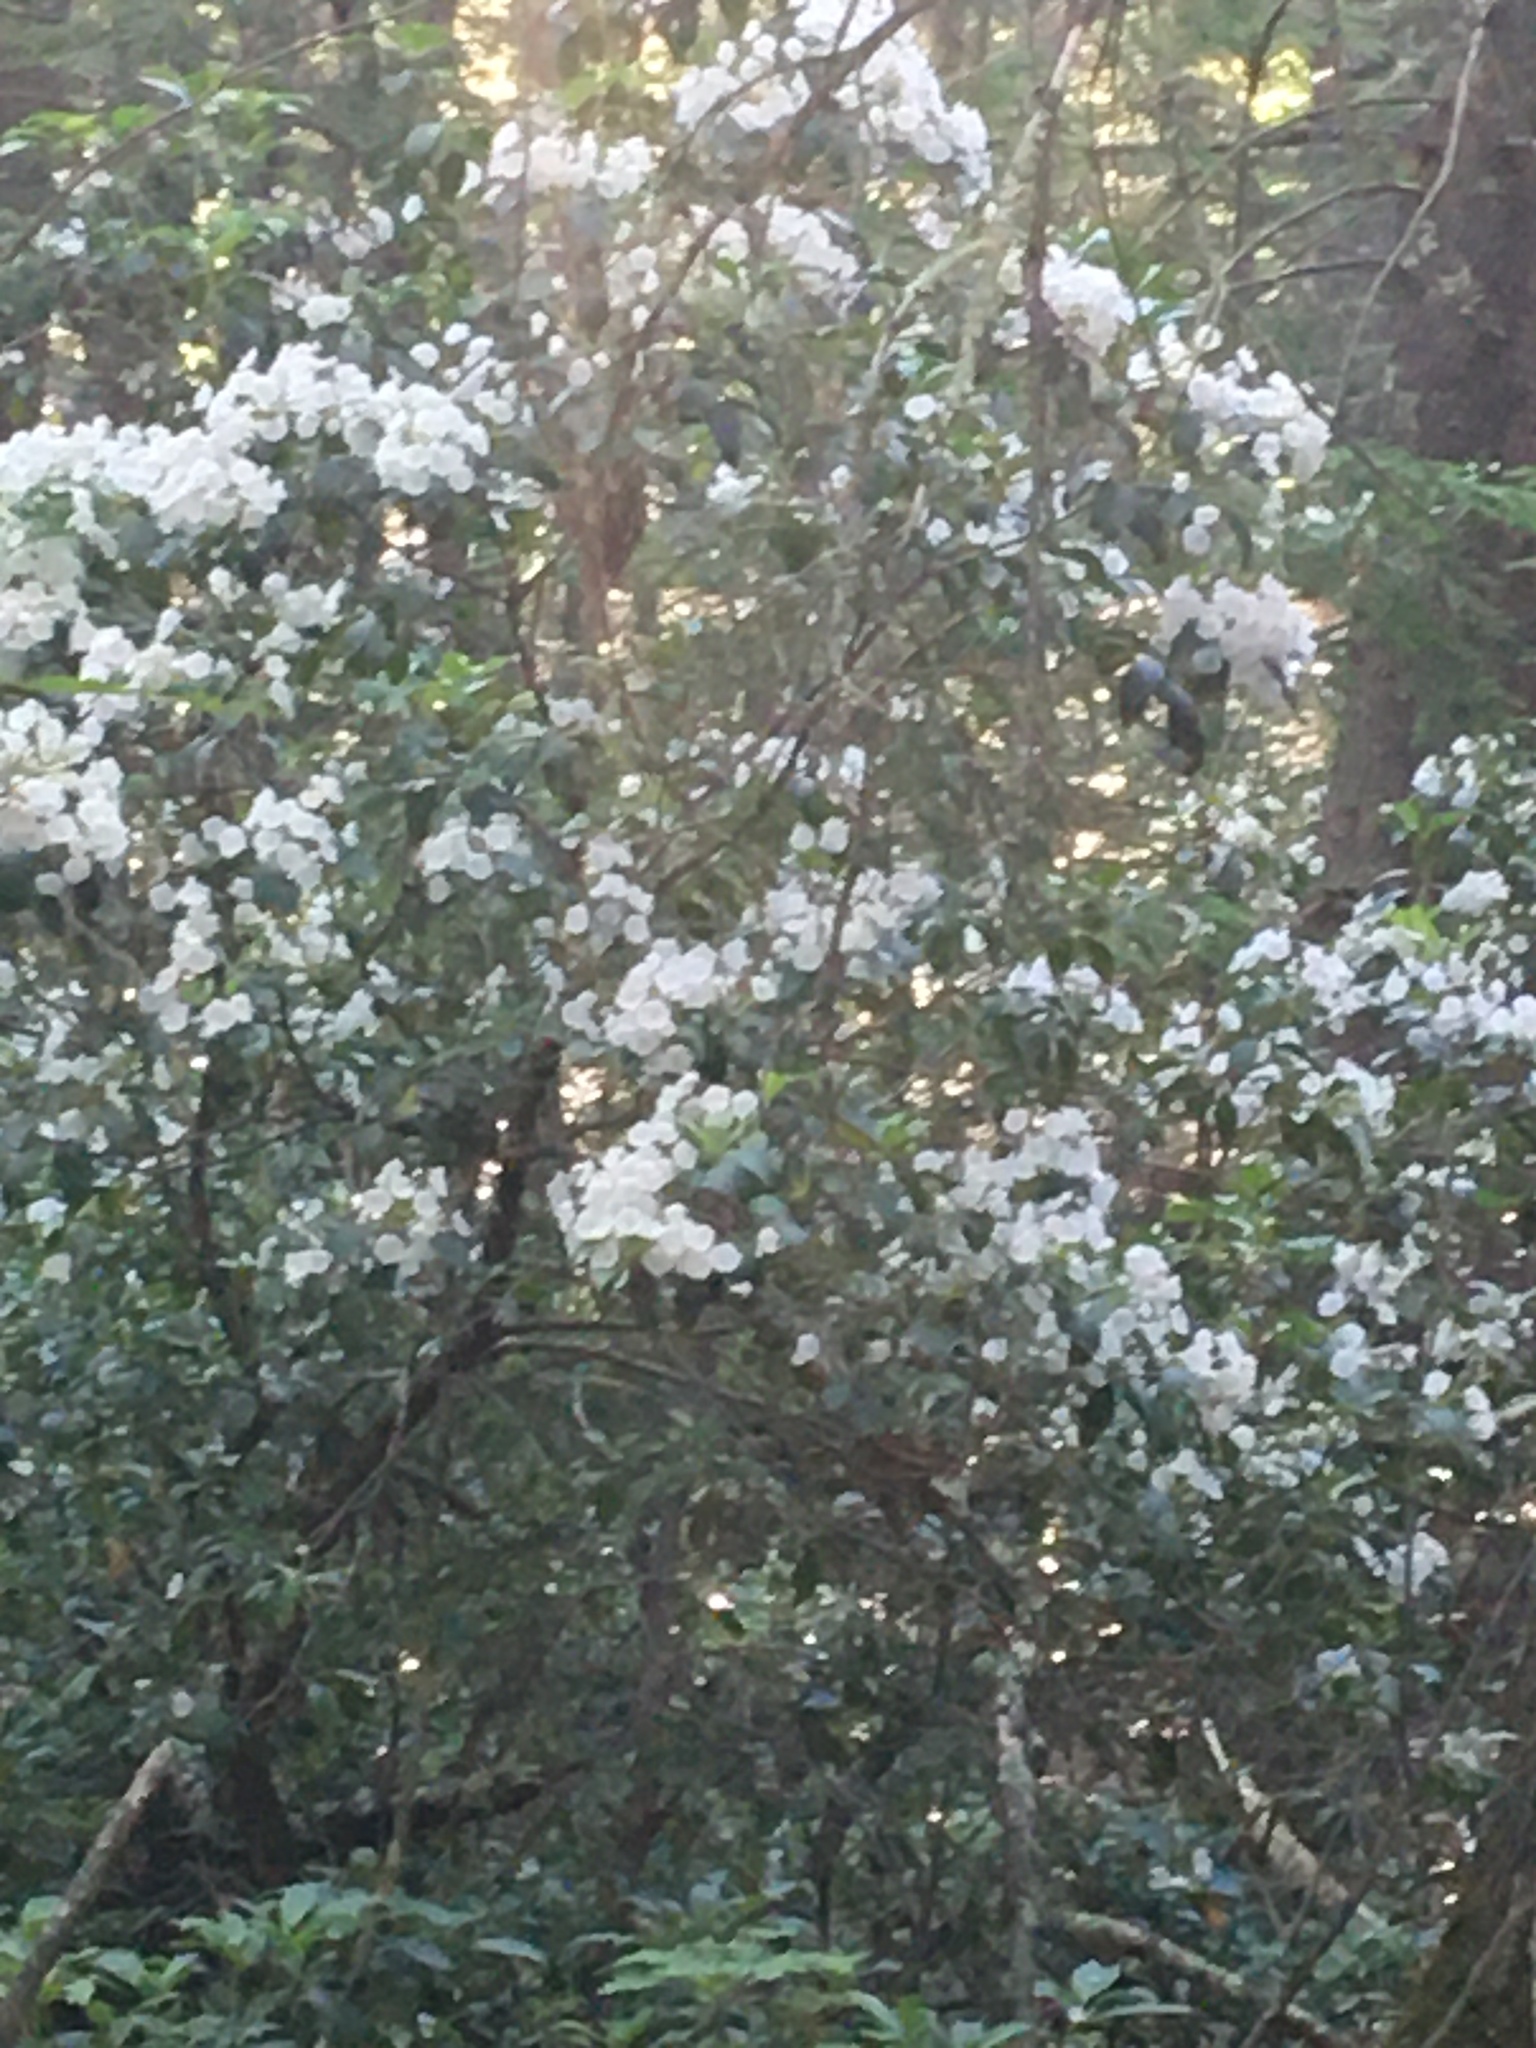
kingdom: Plantae
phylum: Tracheophyta
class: Magnoliopsida
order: Ericales
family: Ericaceae
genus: Kalmia
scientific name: Kalmia latifolia
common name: Mountain-laurel
